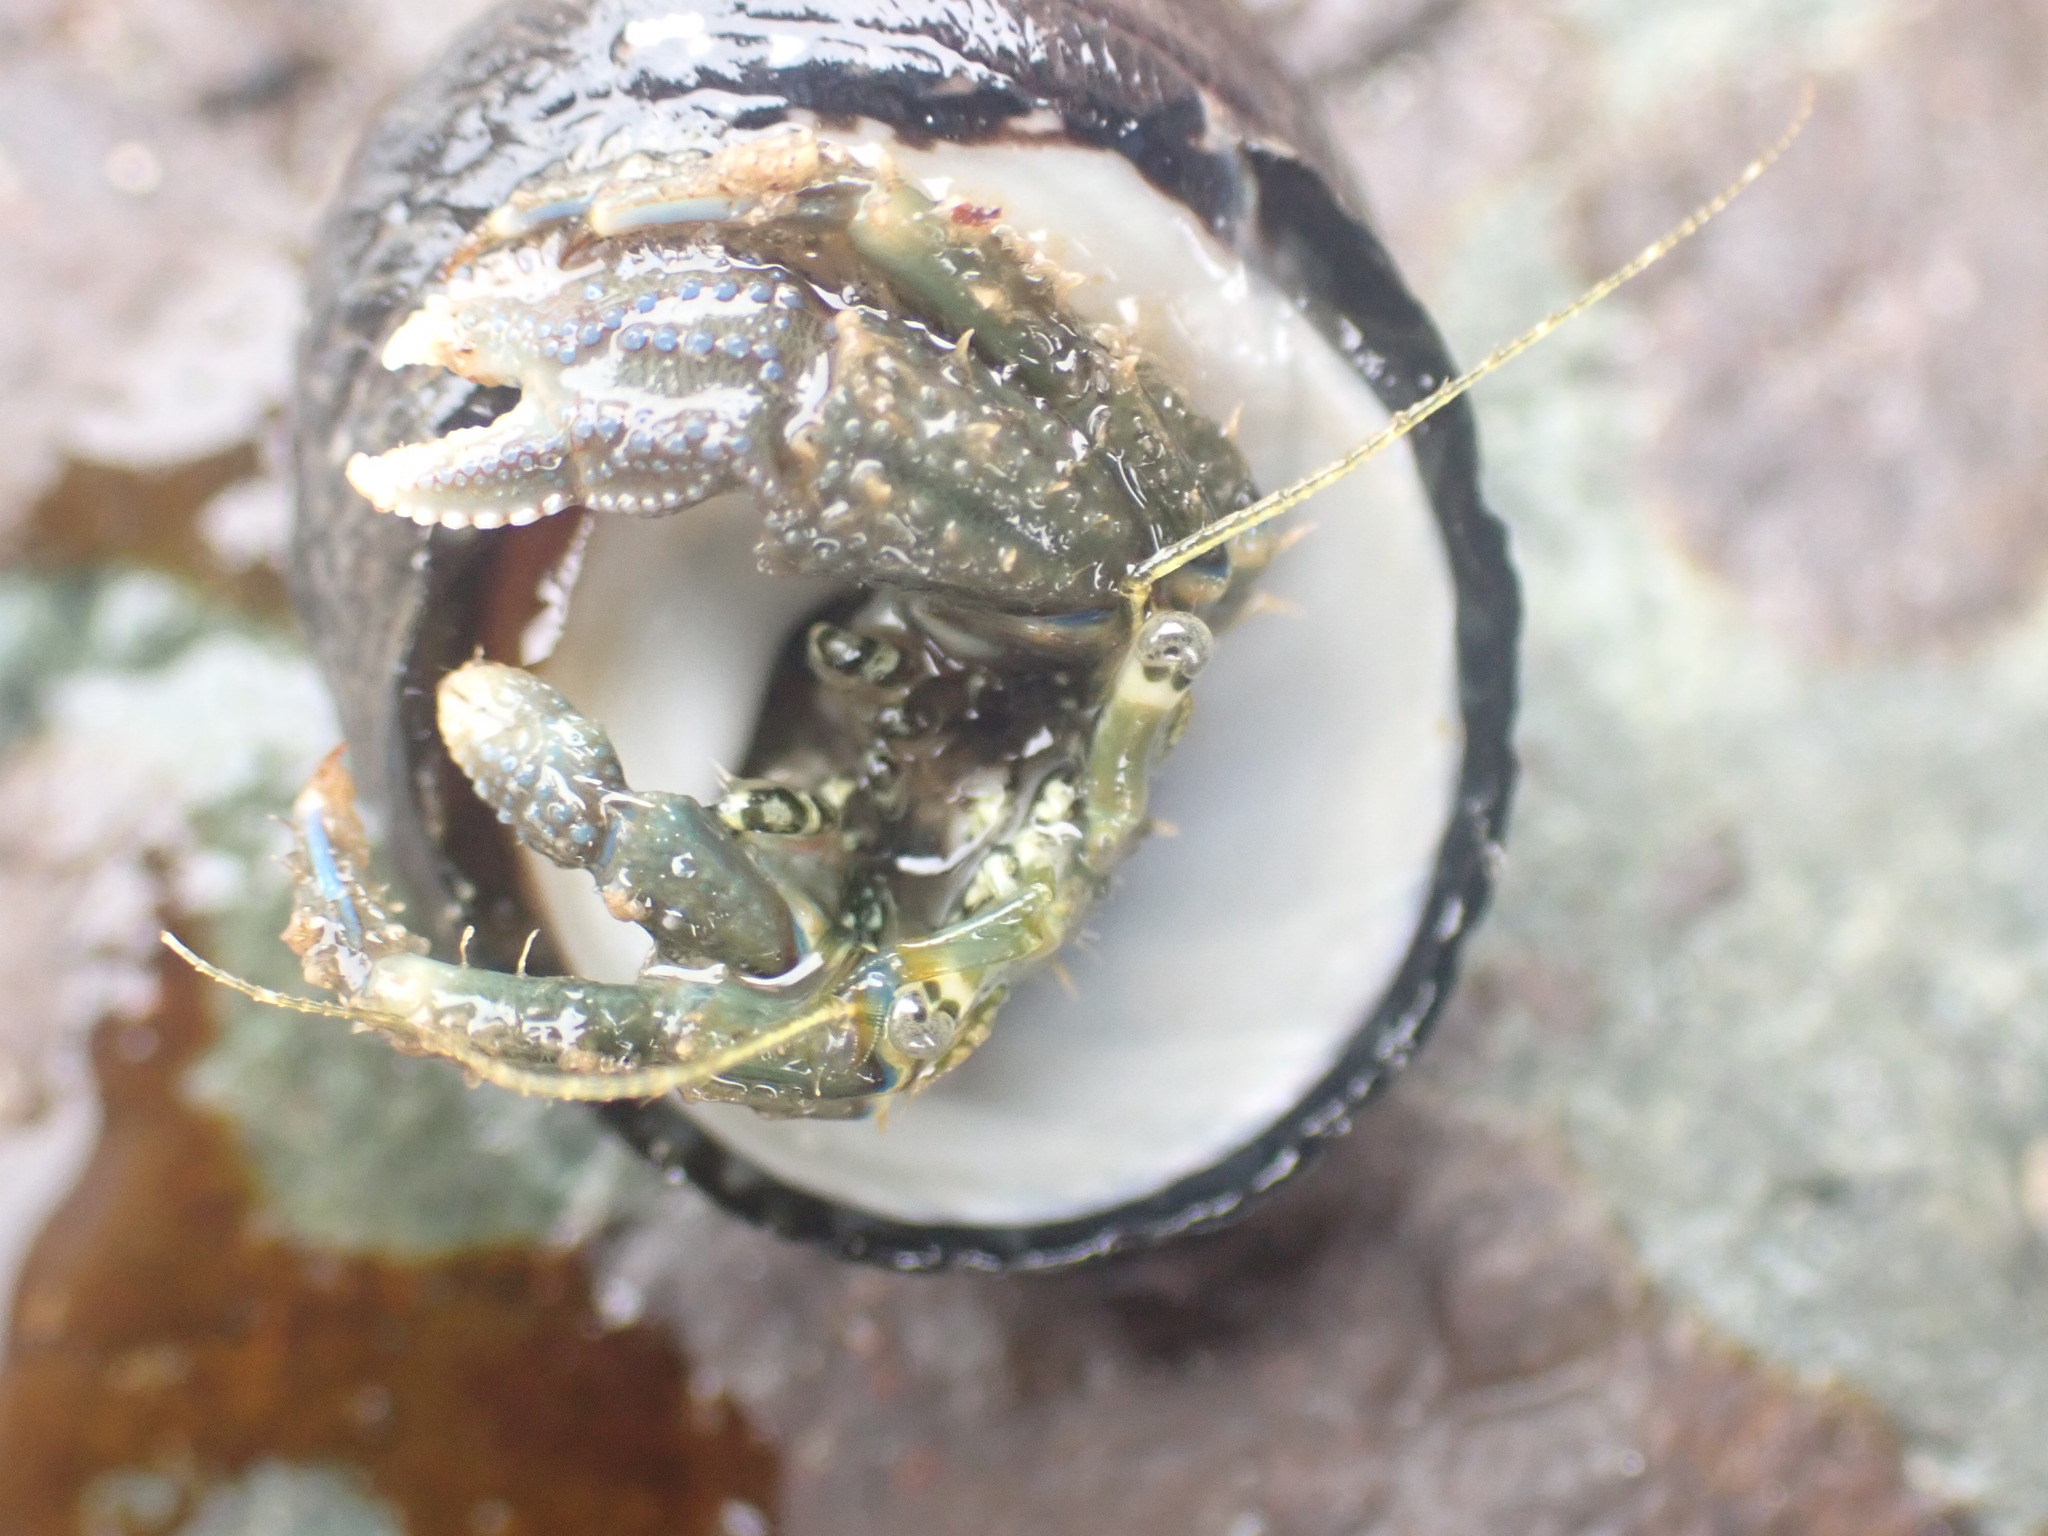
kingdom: Animalia
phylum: Arthropoda
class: Malacostraca
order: Decapoda
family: Paguridae
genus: Pagurus
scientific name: Pagurus novizealandiae
